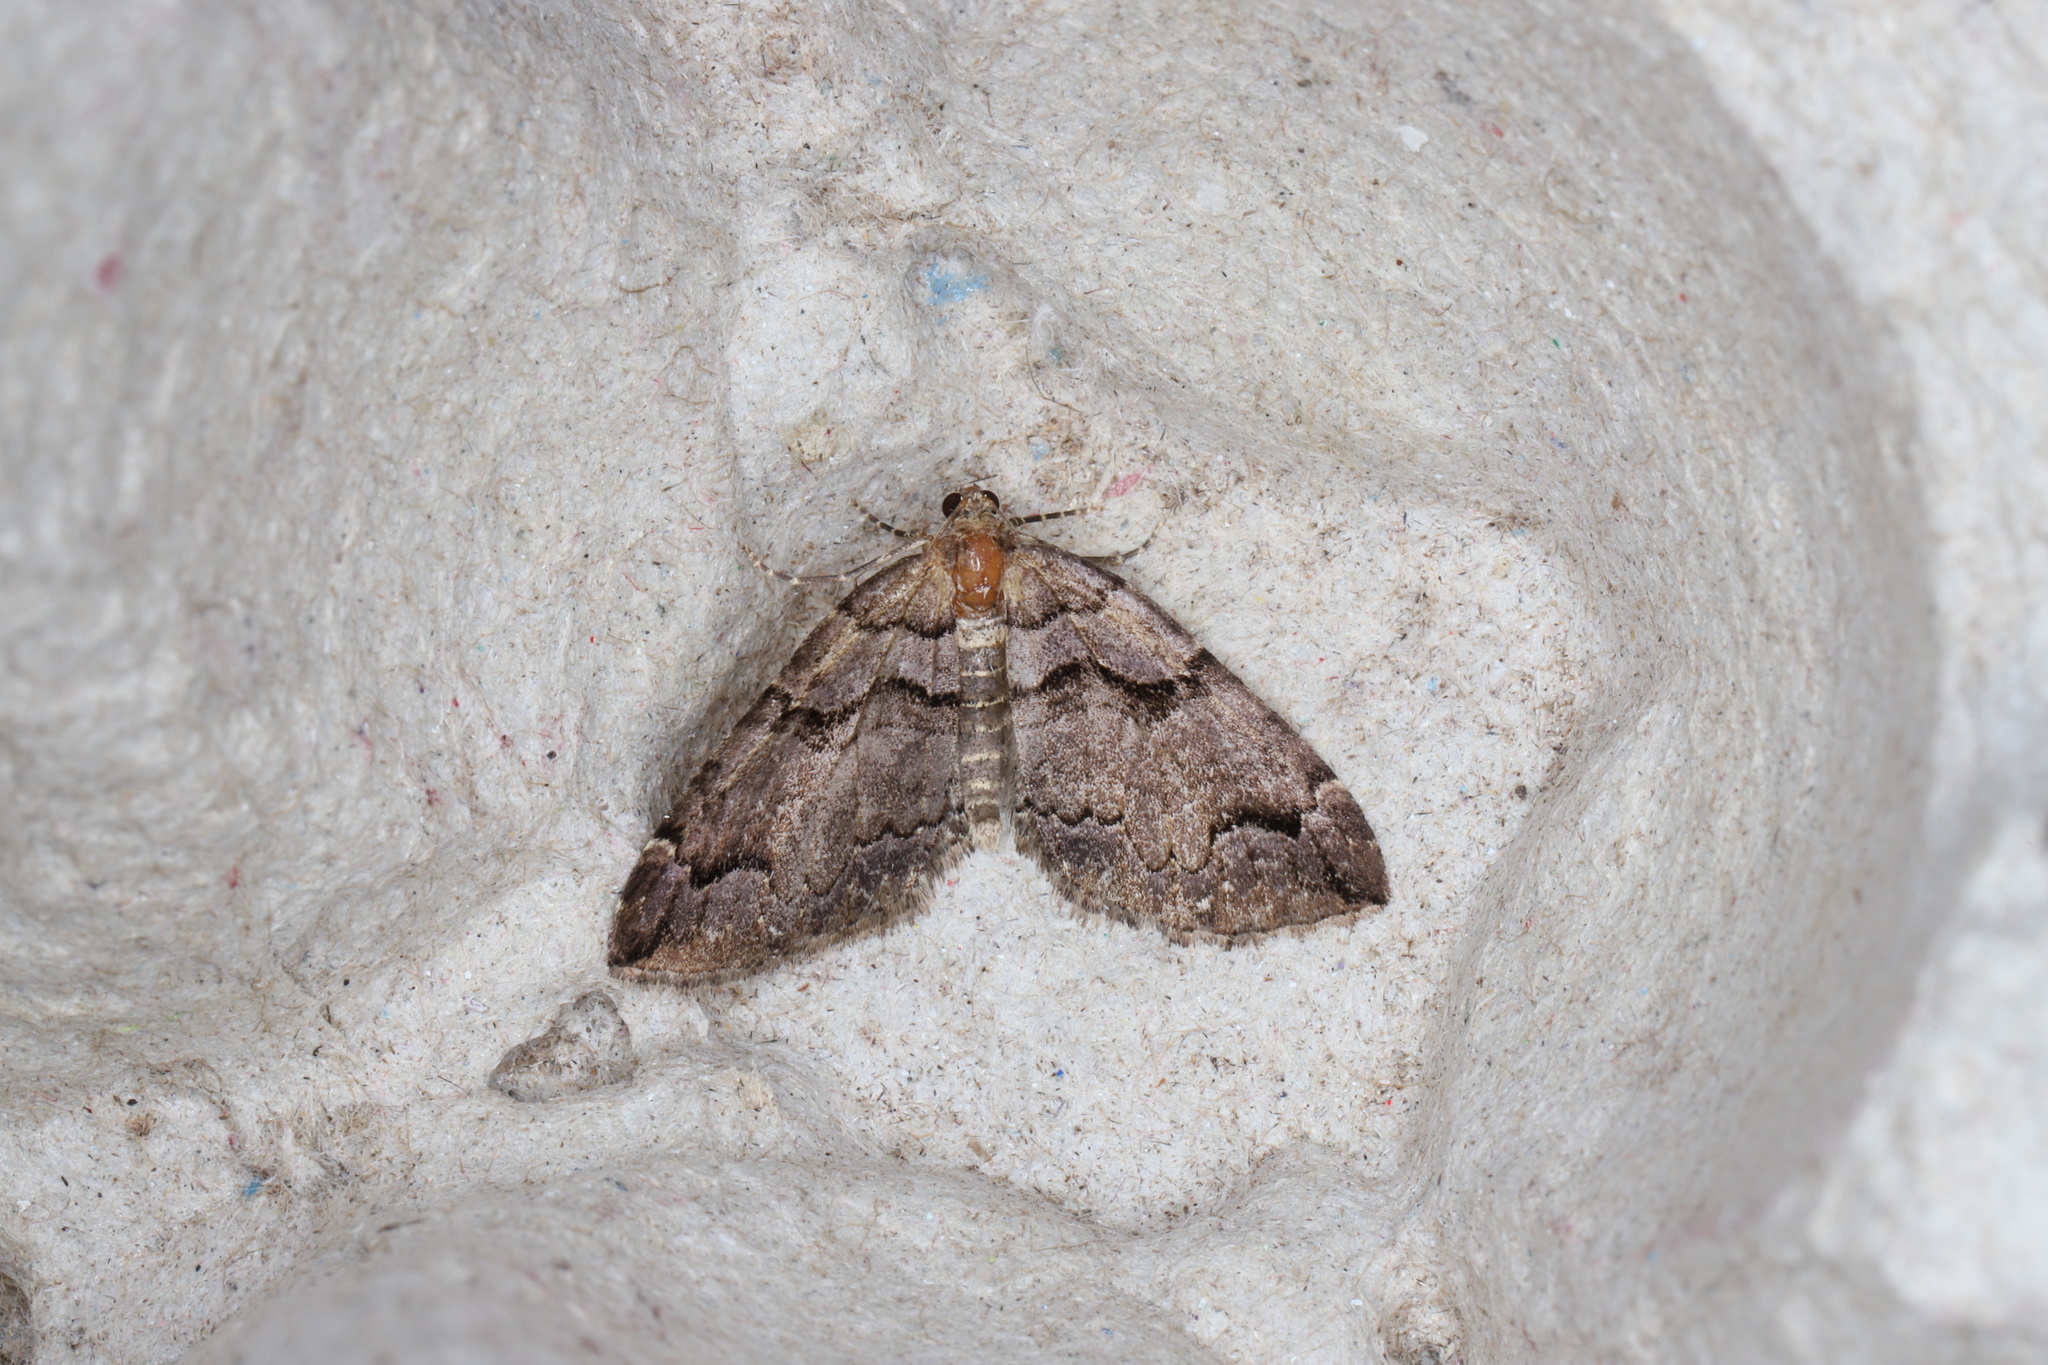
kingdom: Animalia
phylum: Arthropoda
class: Insecta
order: Lepidoptera
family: Geometridae
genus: Anticlea
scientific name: Anticlea vasiliata
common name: Variable carpet
